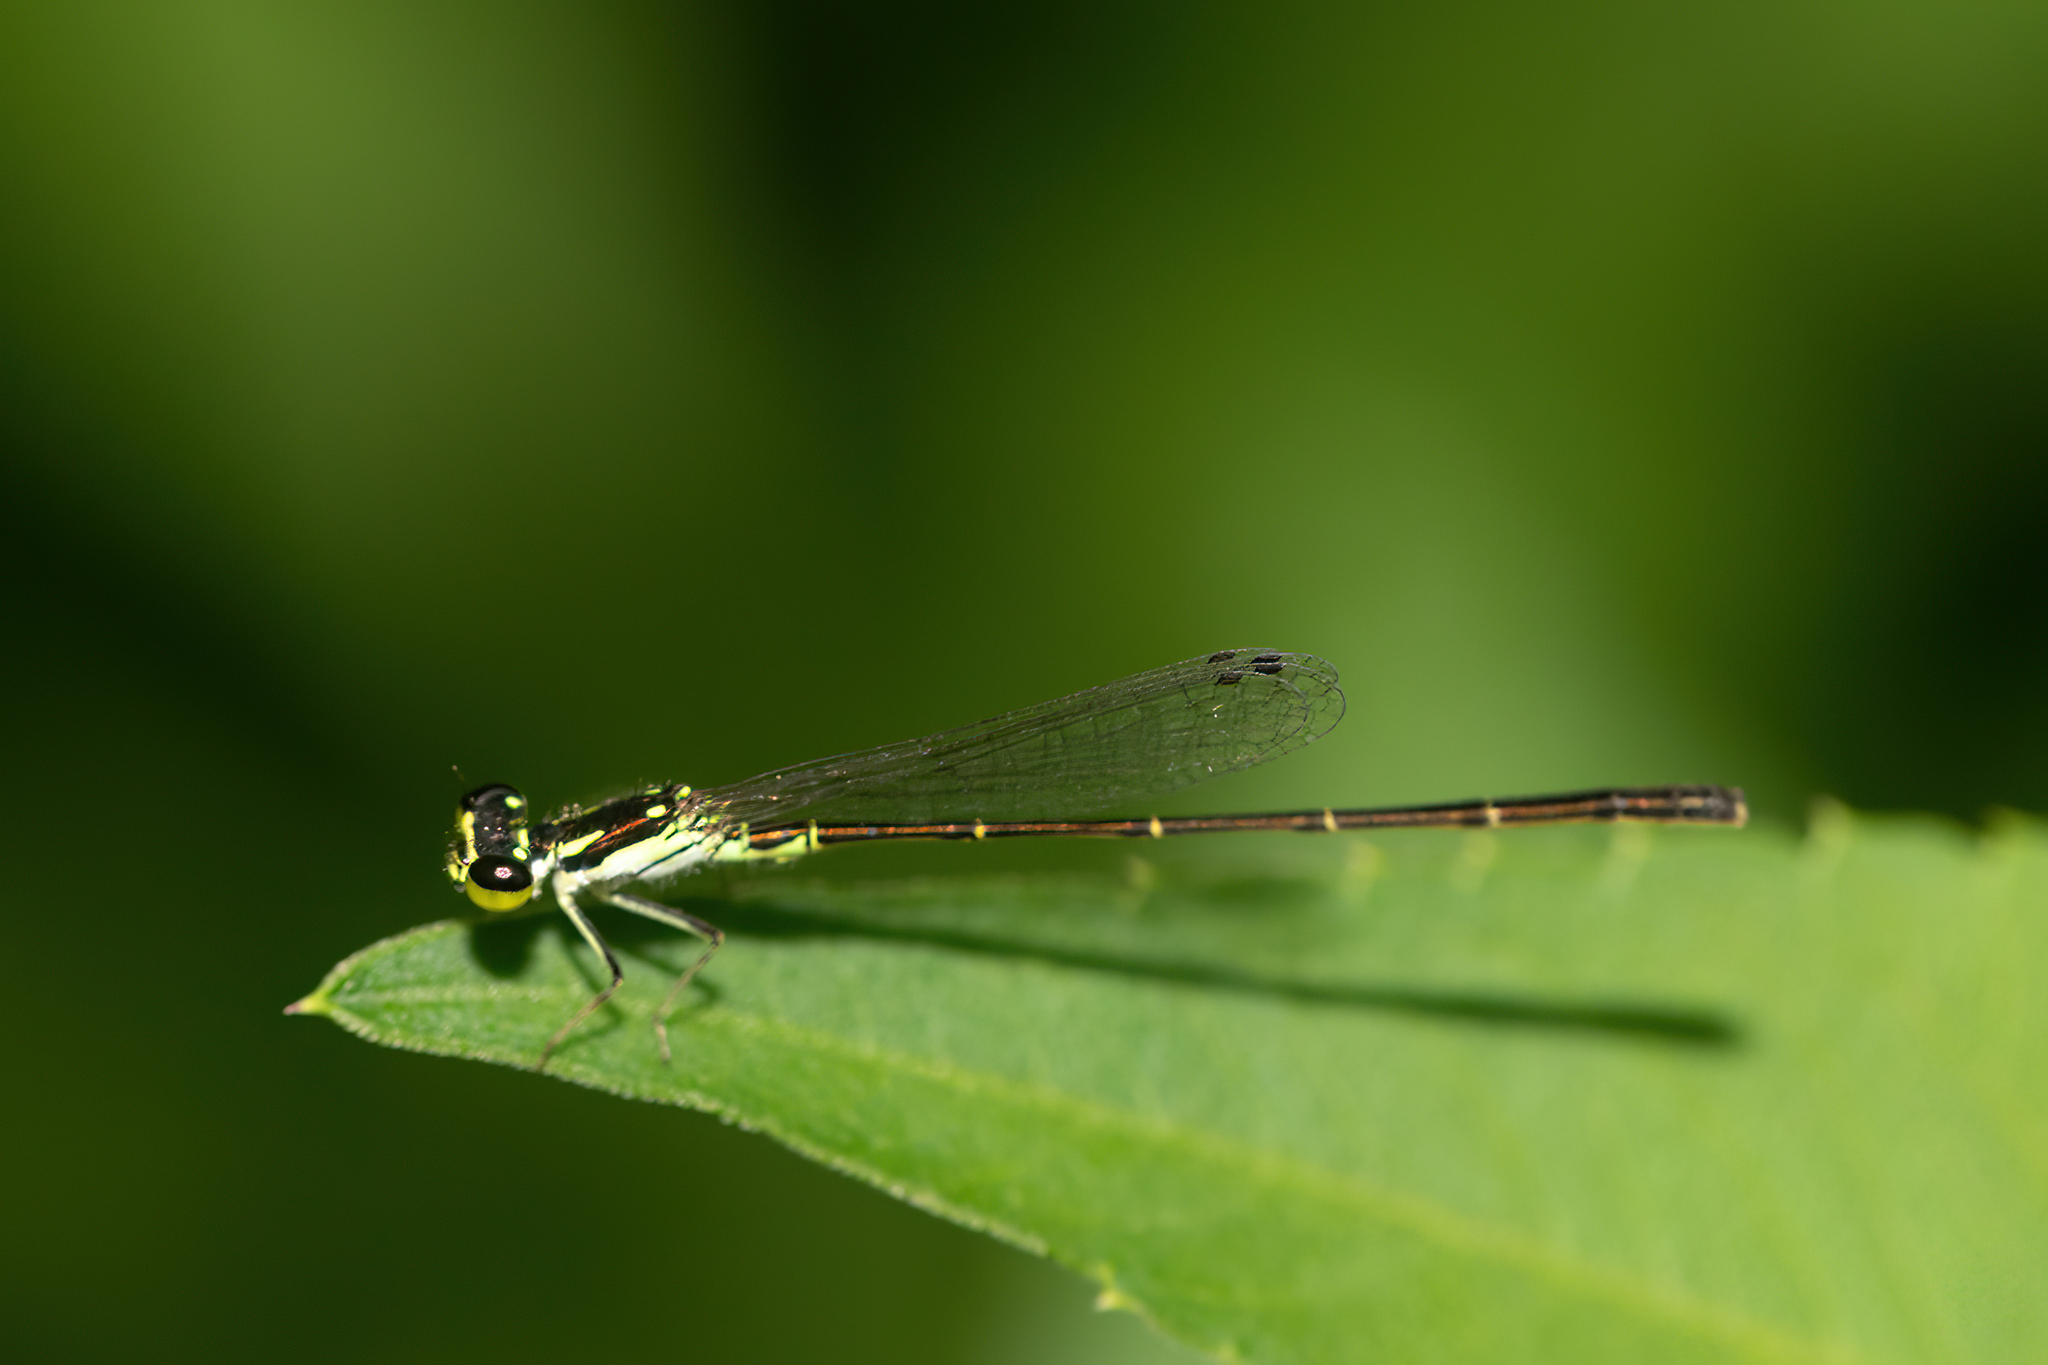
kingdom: Animalia
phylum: Arthropoda
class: Insecta
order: Odonata
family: Coenagrionidae
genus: Ischnura
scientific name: Ischnura posita
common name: Fragile forktail
